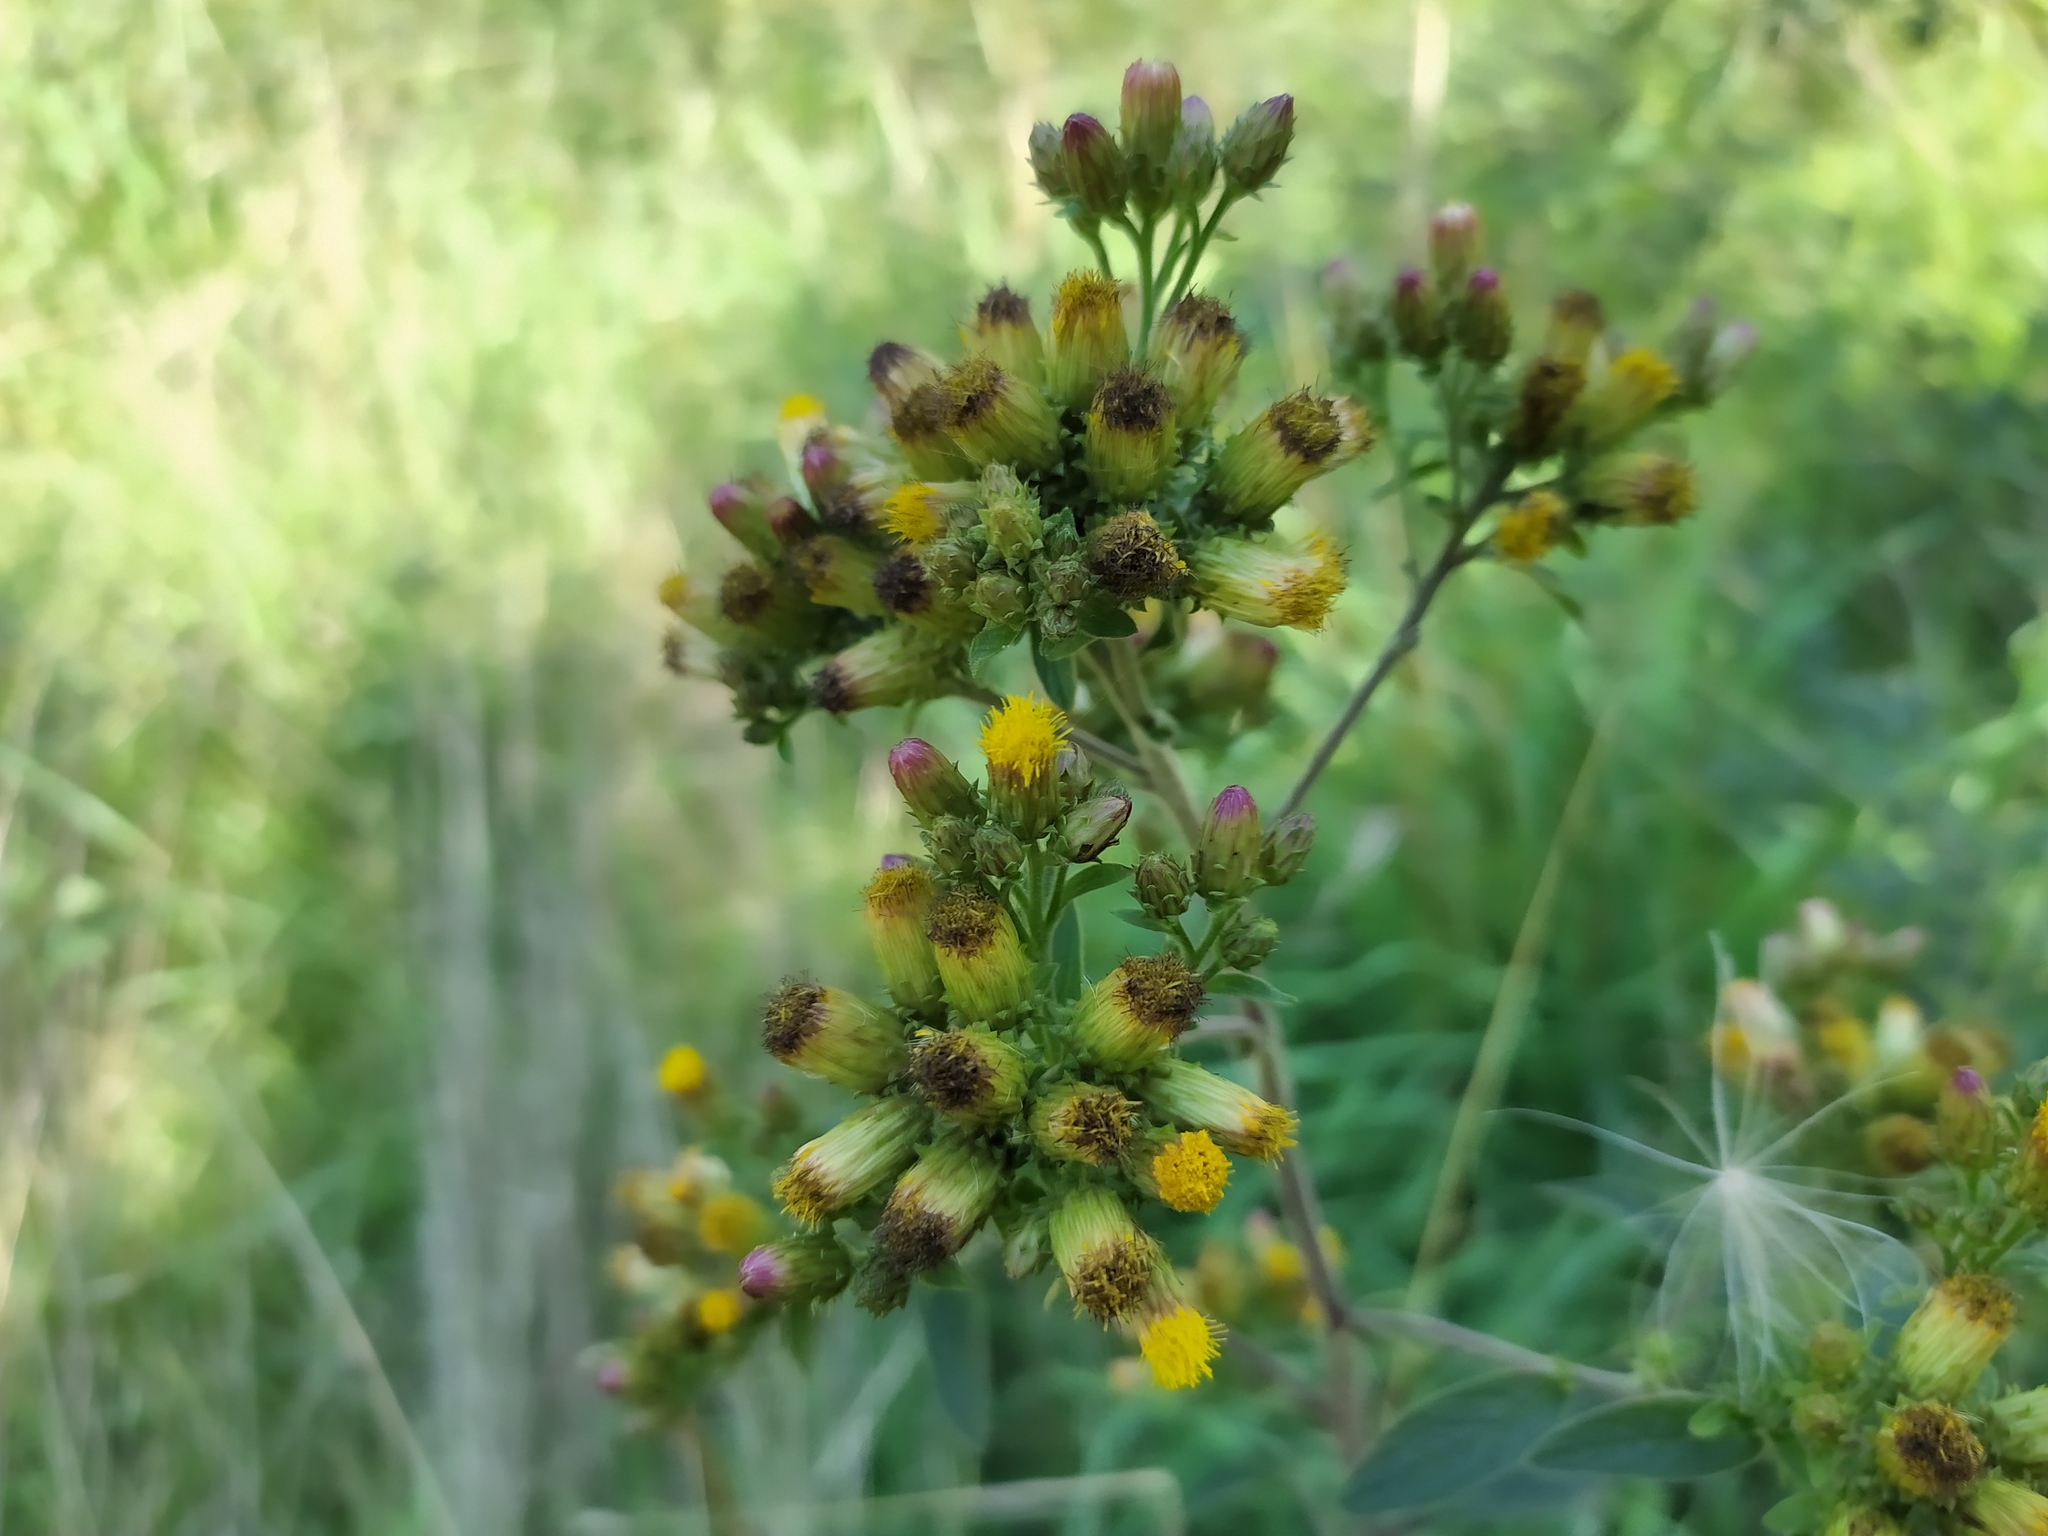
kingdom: Plantae
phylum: Tracheophyta
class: Magnoliopsida
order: Asterales
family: Asteraceae
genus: Pentanema
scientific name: Pentanema squarrosum
